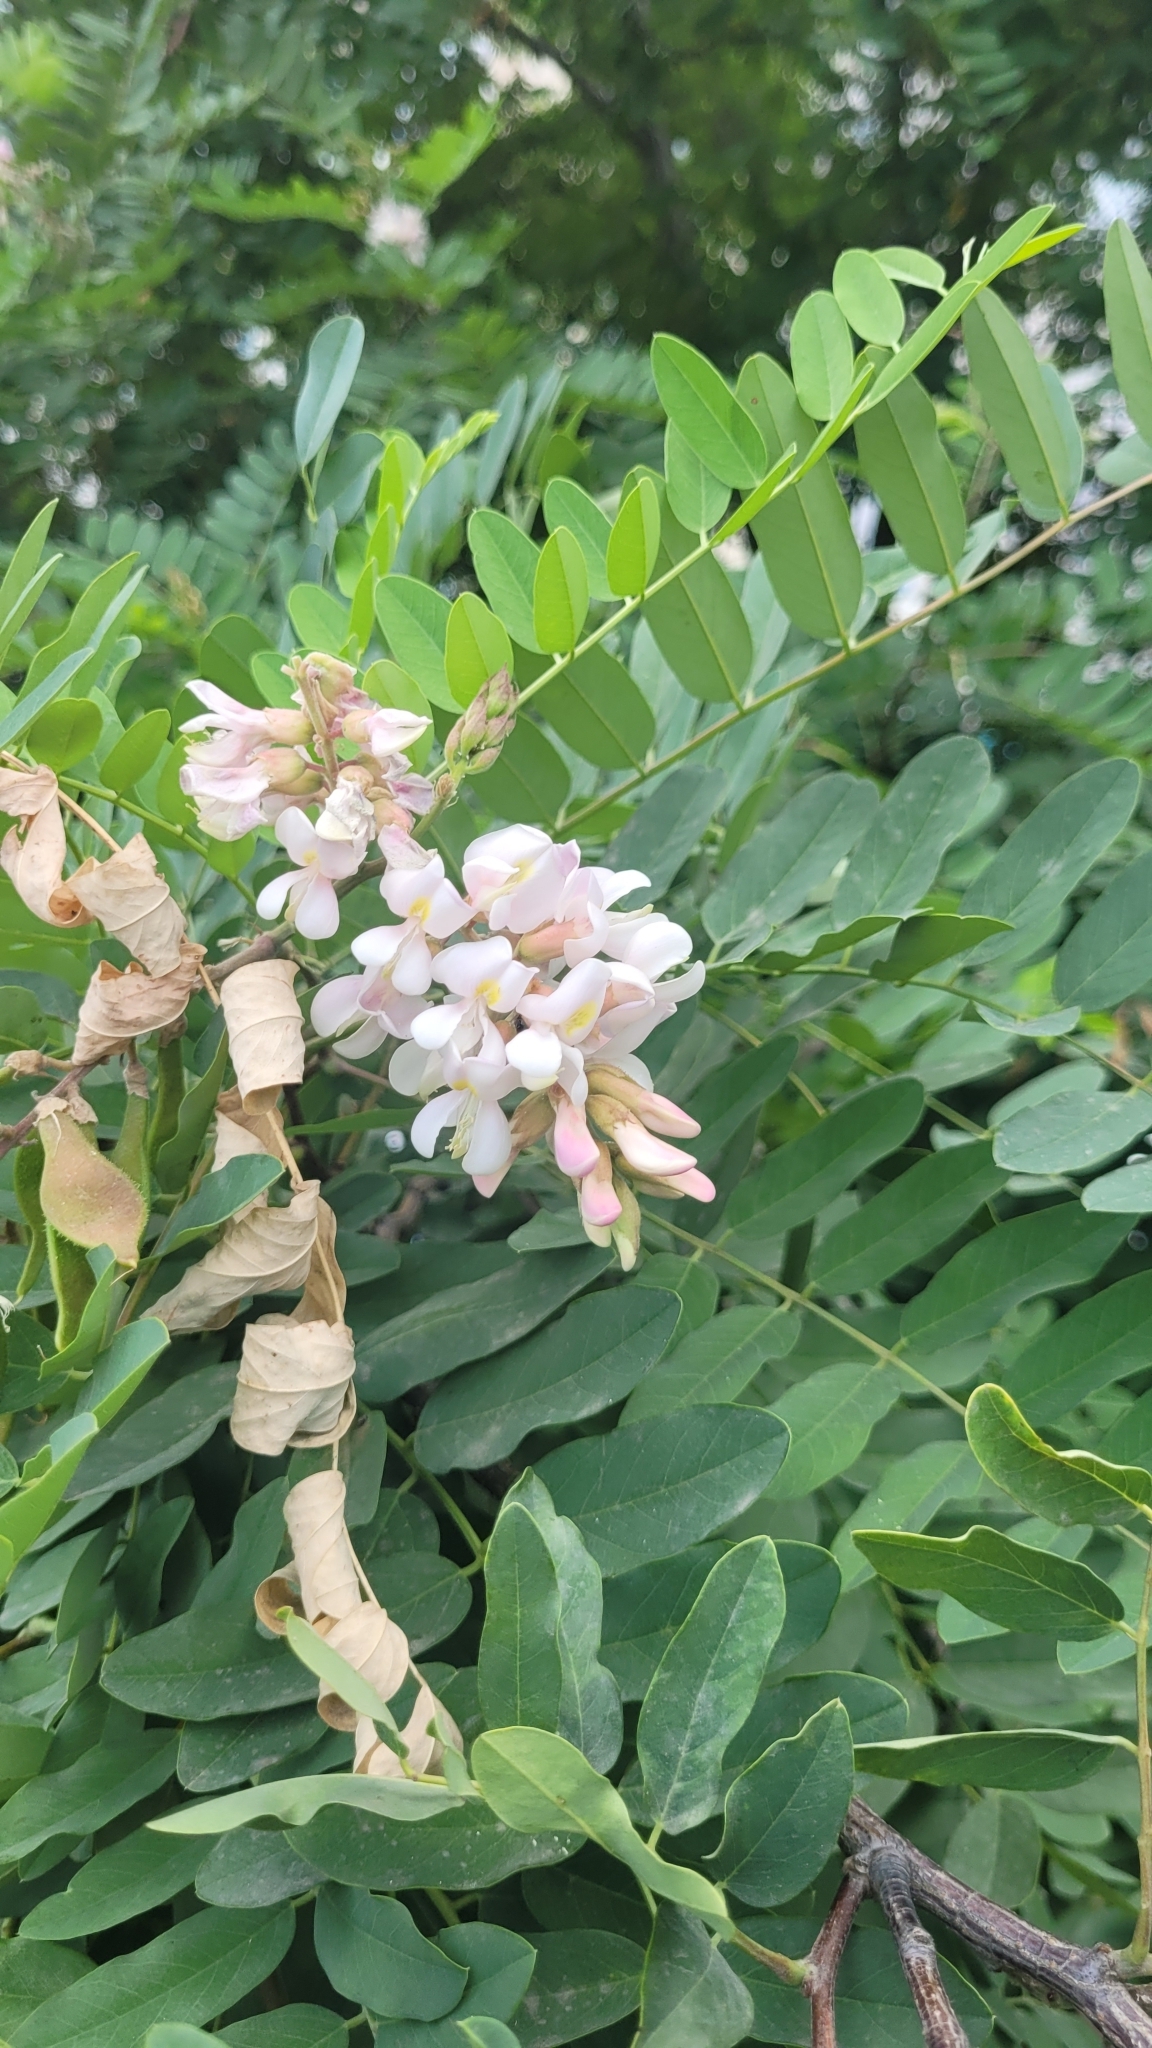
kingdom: Plantae
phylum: Tracheophyta
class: Magnoliopsida
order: Fabales
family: Fabaceae
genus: Robinia
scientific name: Robinia pseudoacacia
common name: Black locust
